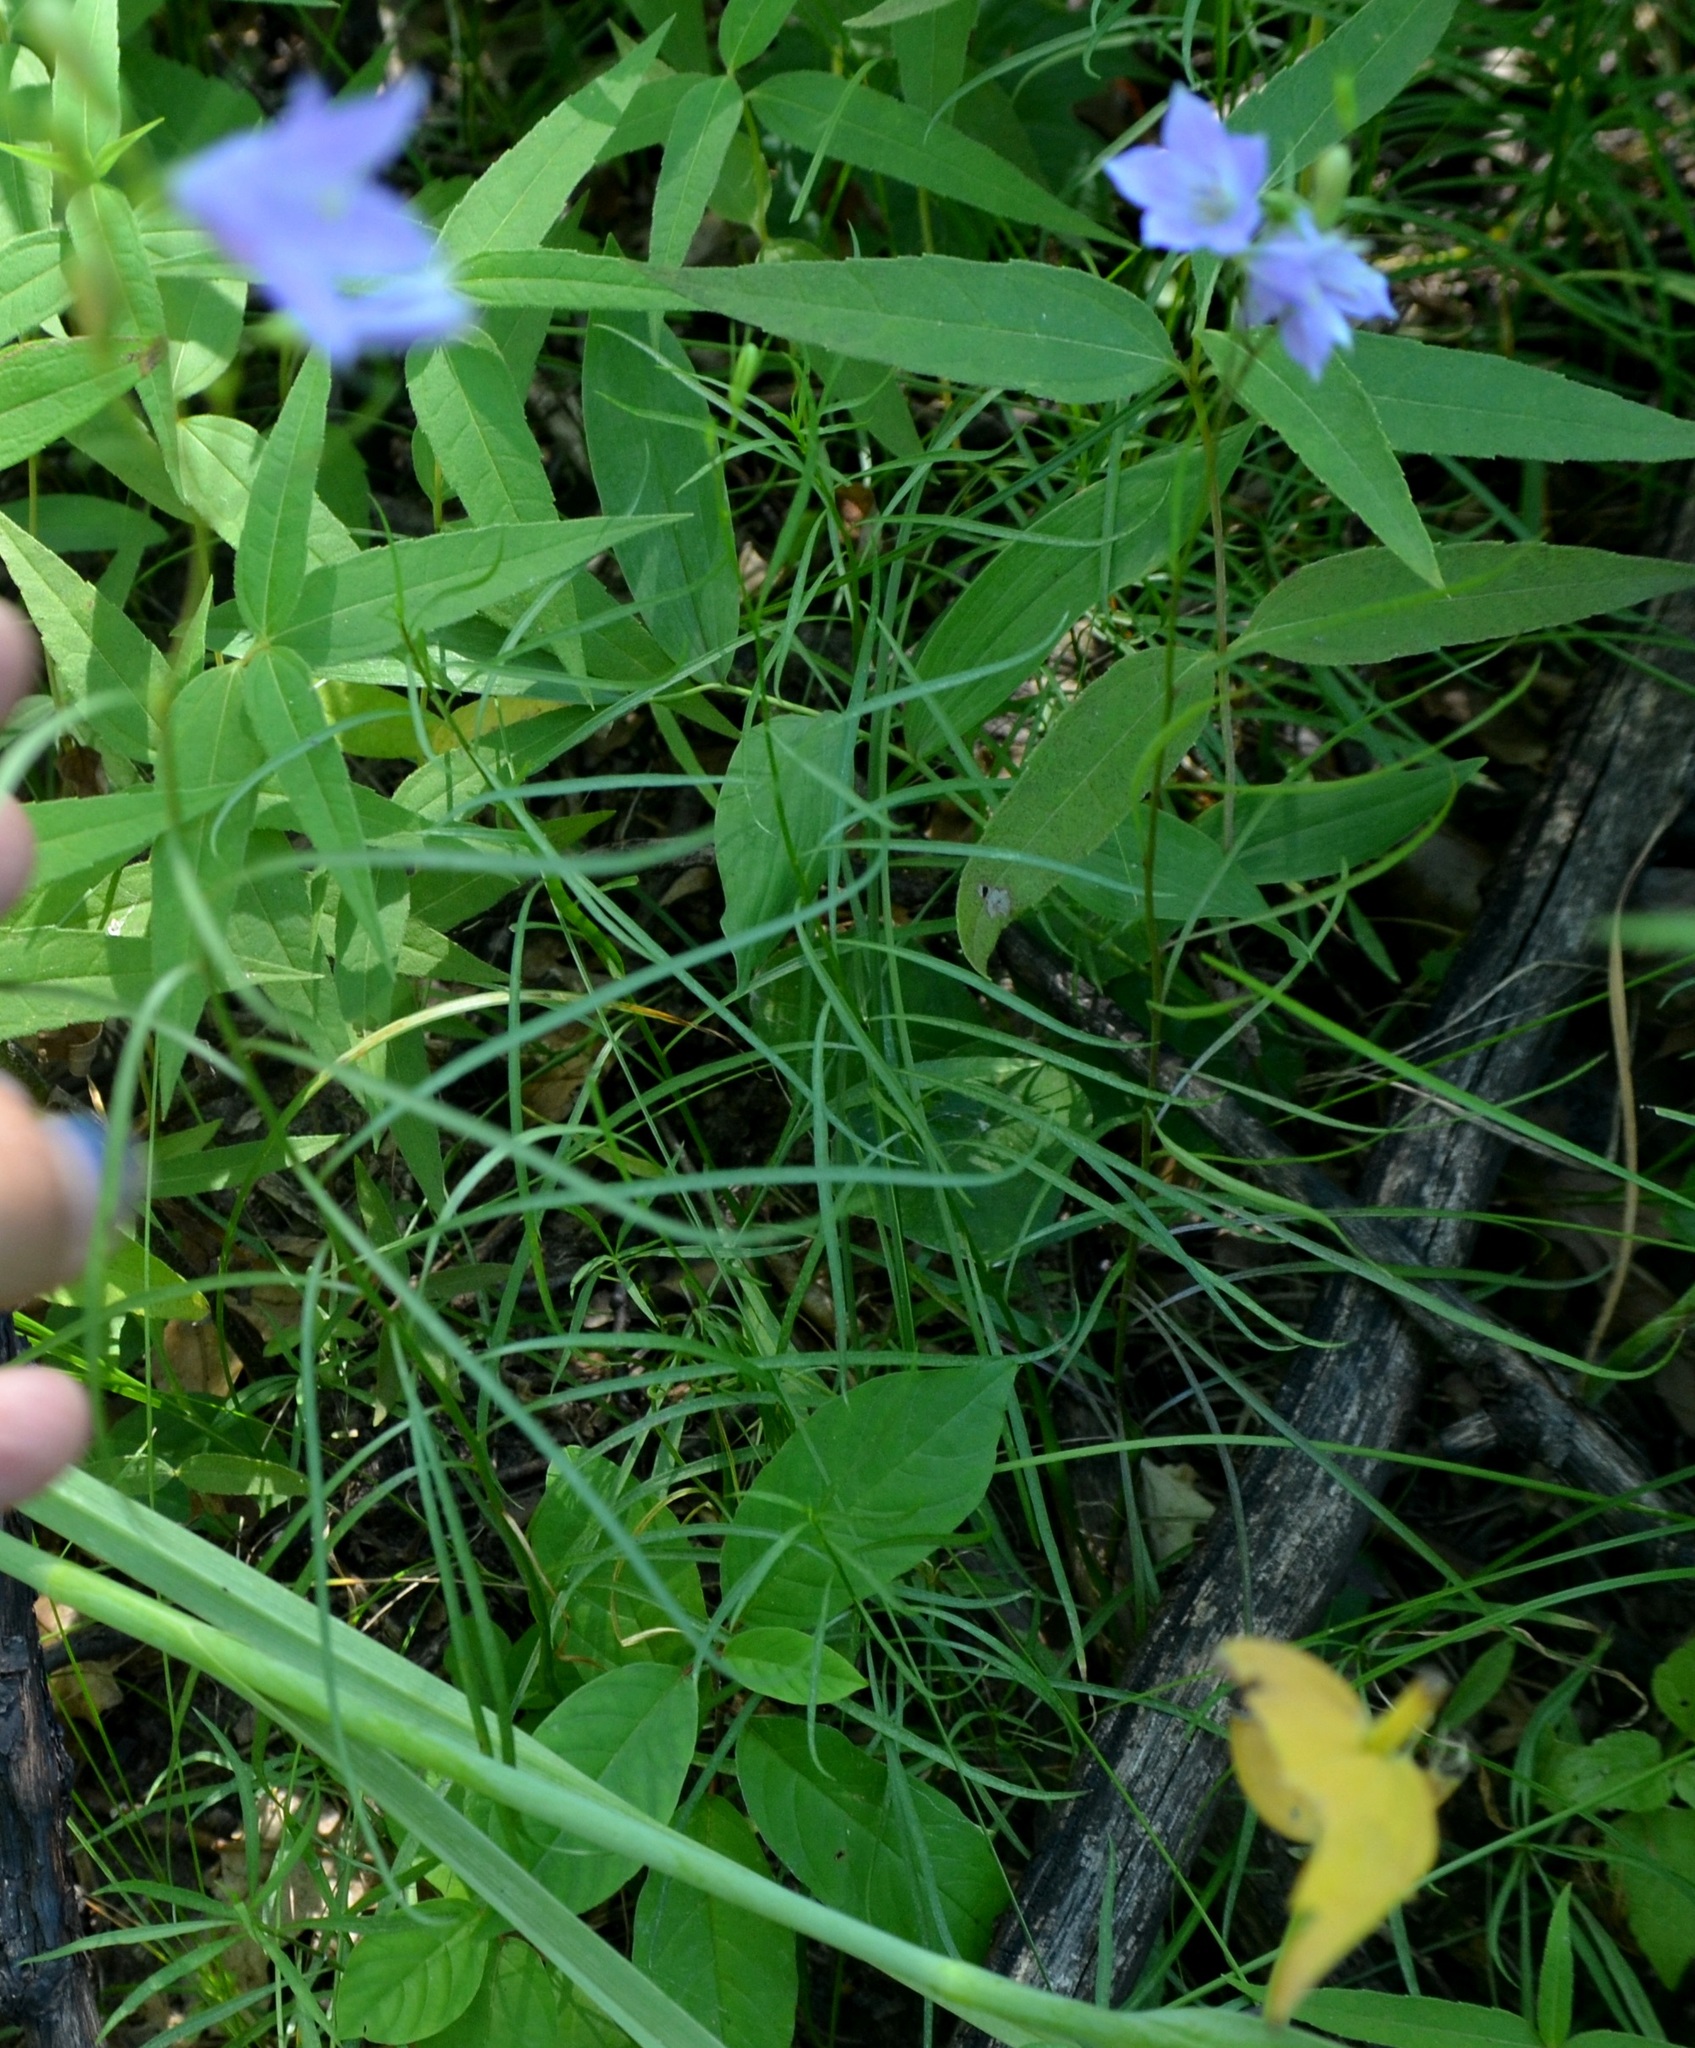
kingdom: Plantae
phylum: Tracheophyta
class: Magnoliopsida
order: Asterales
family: Campanulaceae
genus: Campanula
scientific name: Campanula intercedens
